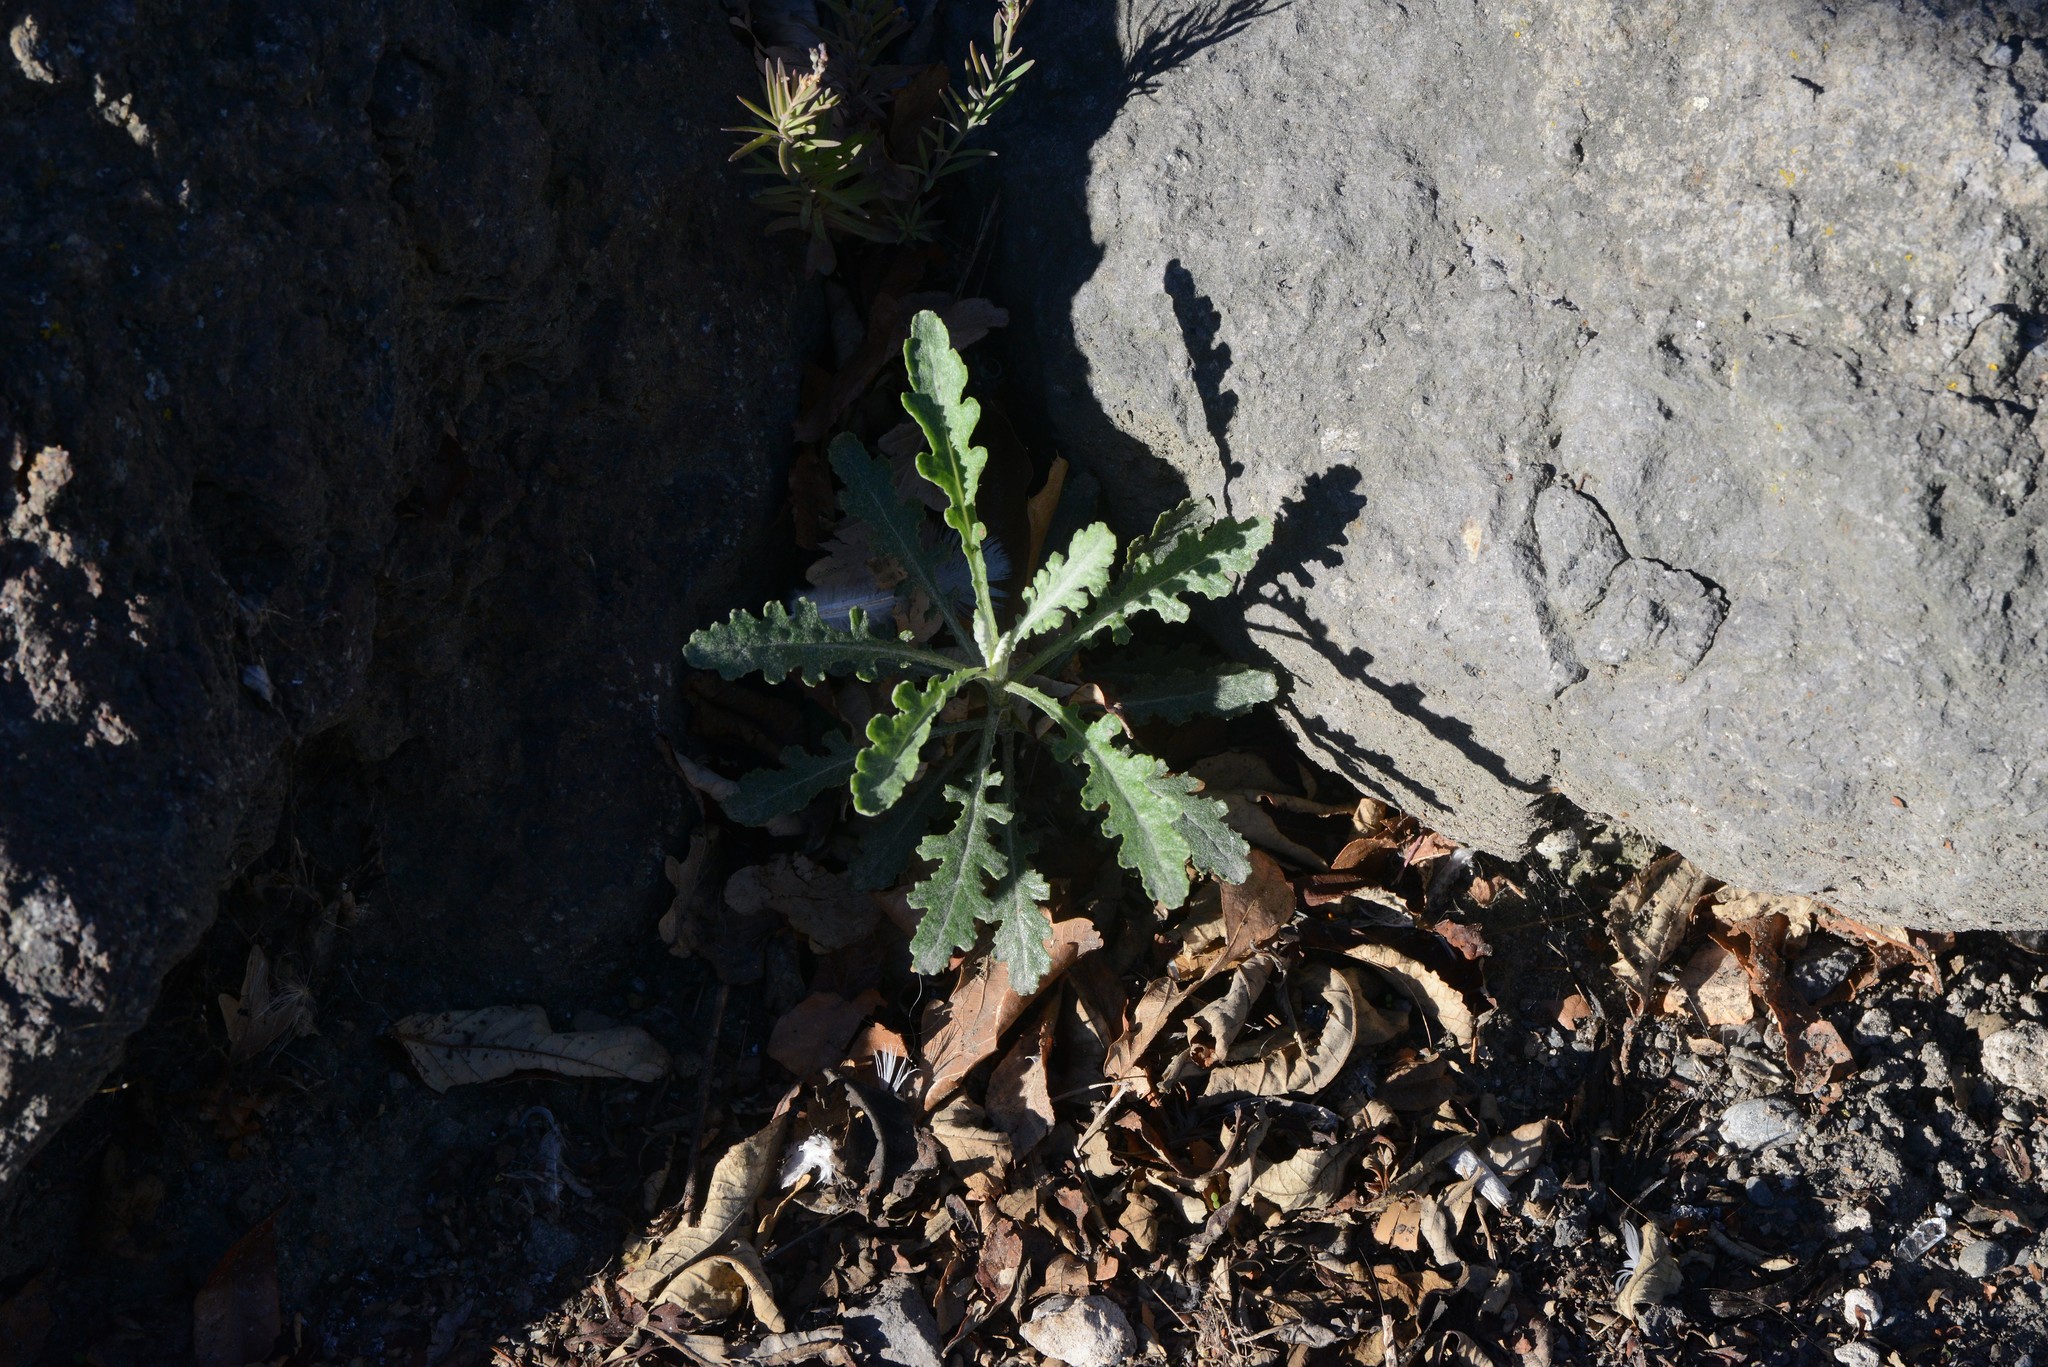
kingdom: Plantae
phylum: Tracheophyta
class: Magnoliopsida
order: Asterales
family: Asteraceae
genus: Senecio
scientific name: Senecio glomeratus
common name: Cutleaf burnweed
